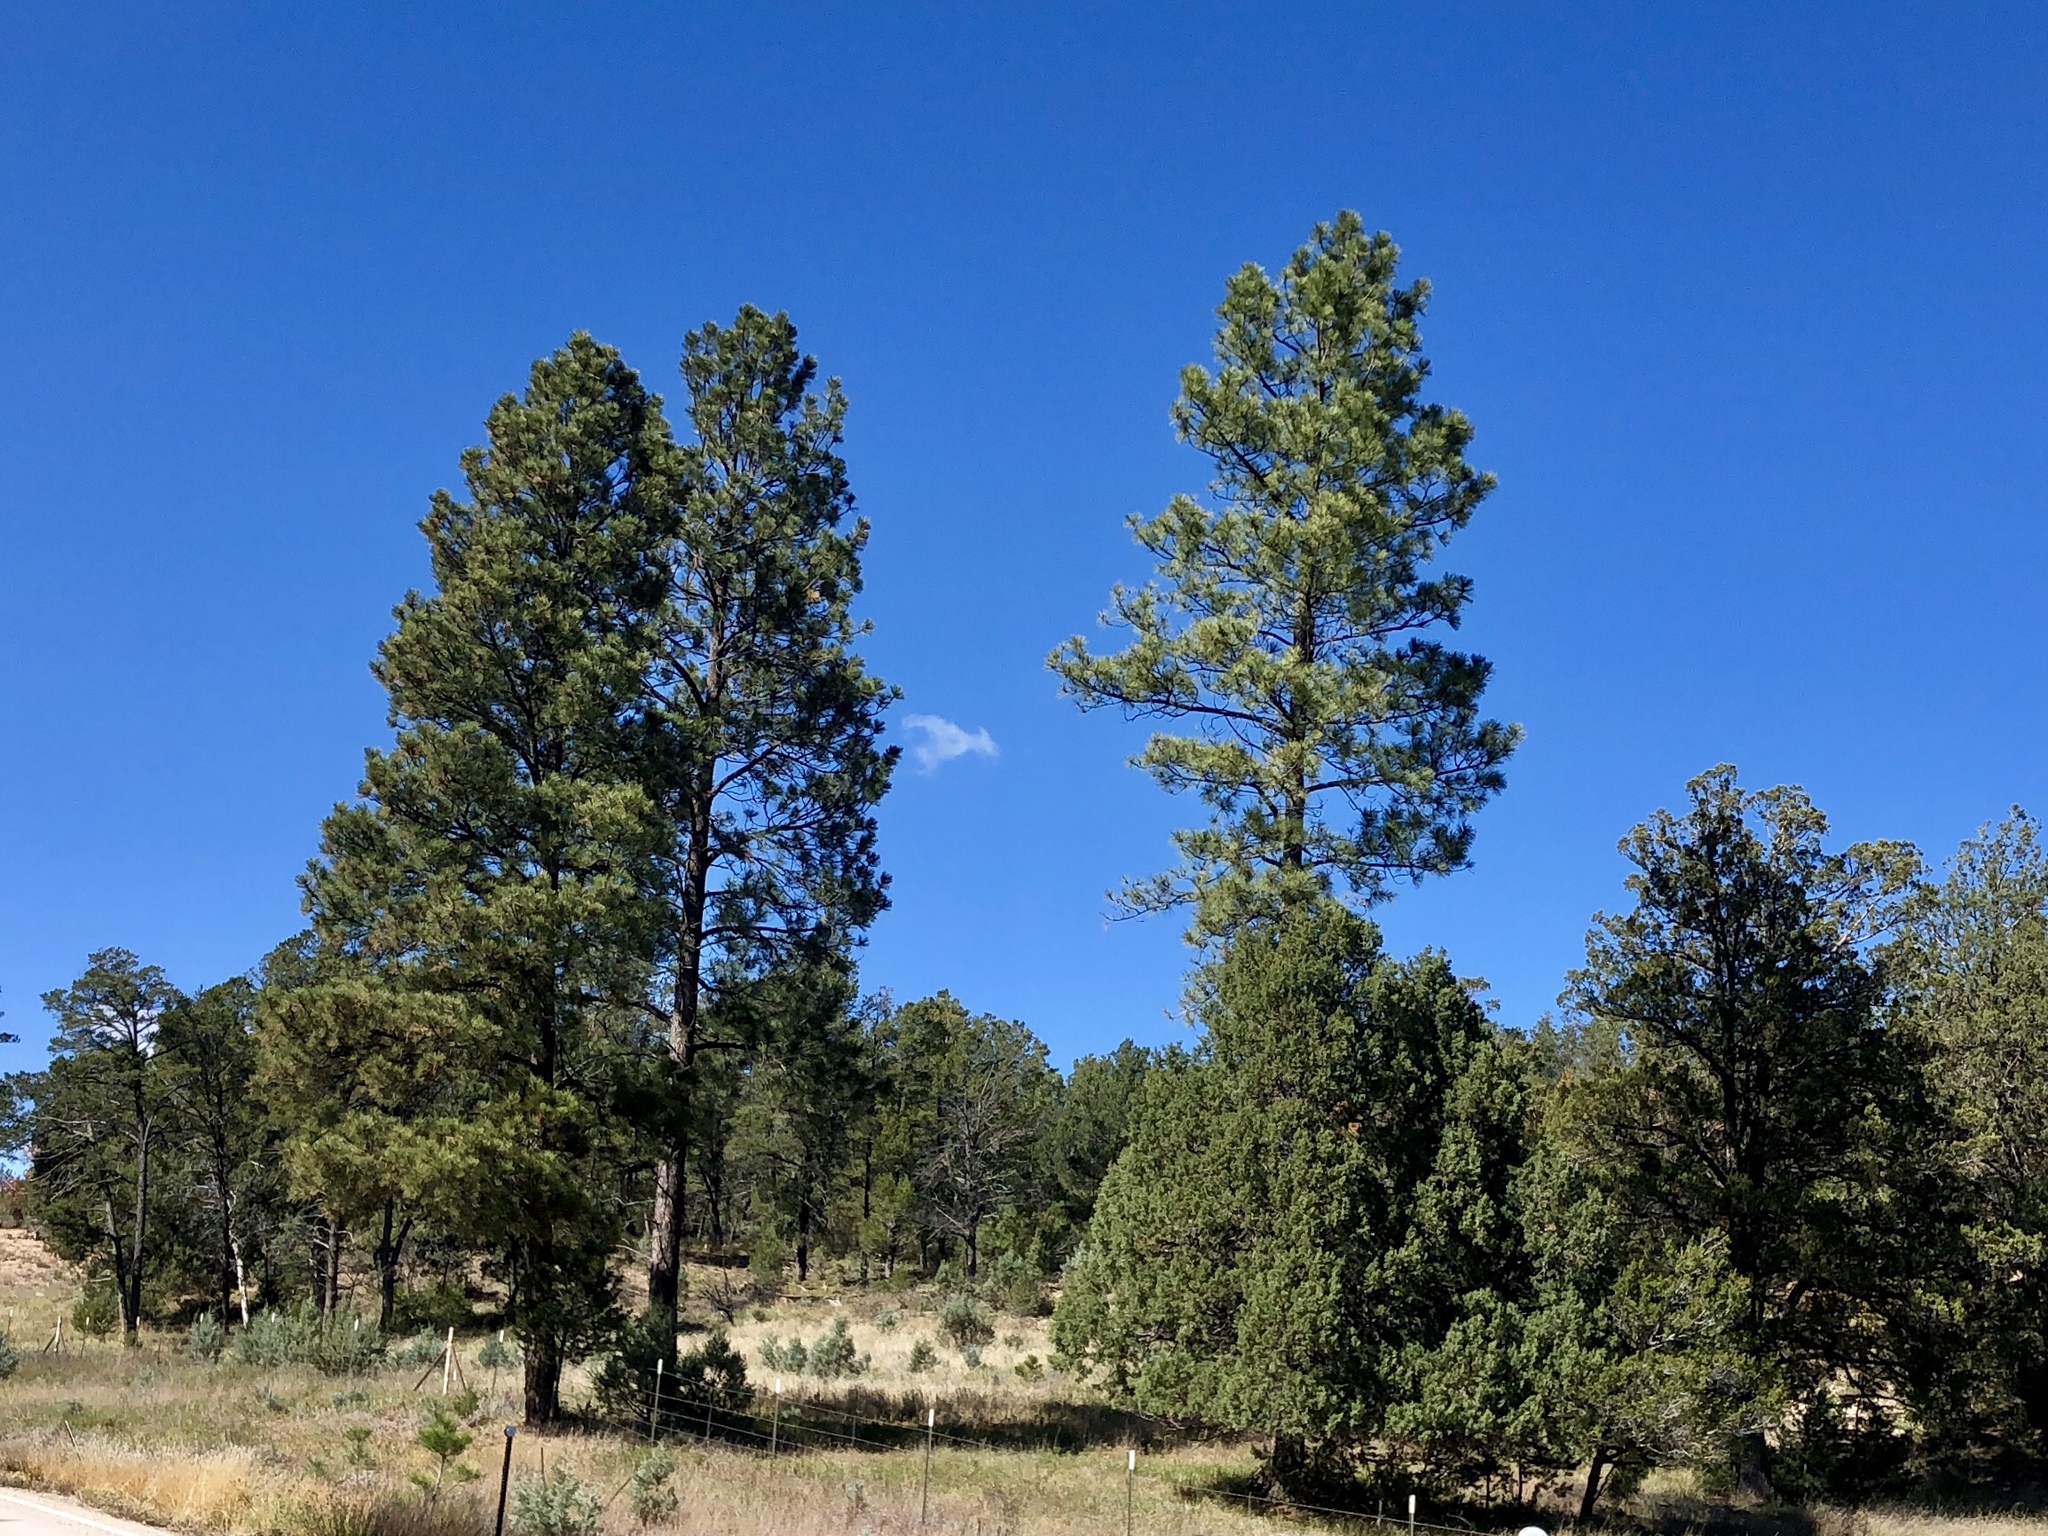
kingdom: Plantae
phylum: Tracheophyta
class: Pinopsida
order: Pinales
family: Pinaceae
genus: Pinus
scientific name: Pinus ponderosa
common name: Western yellow-pine
